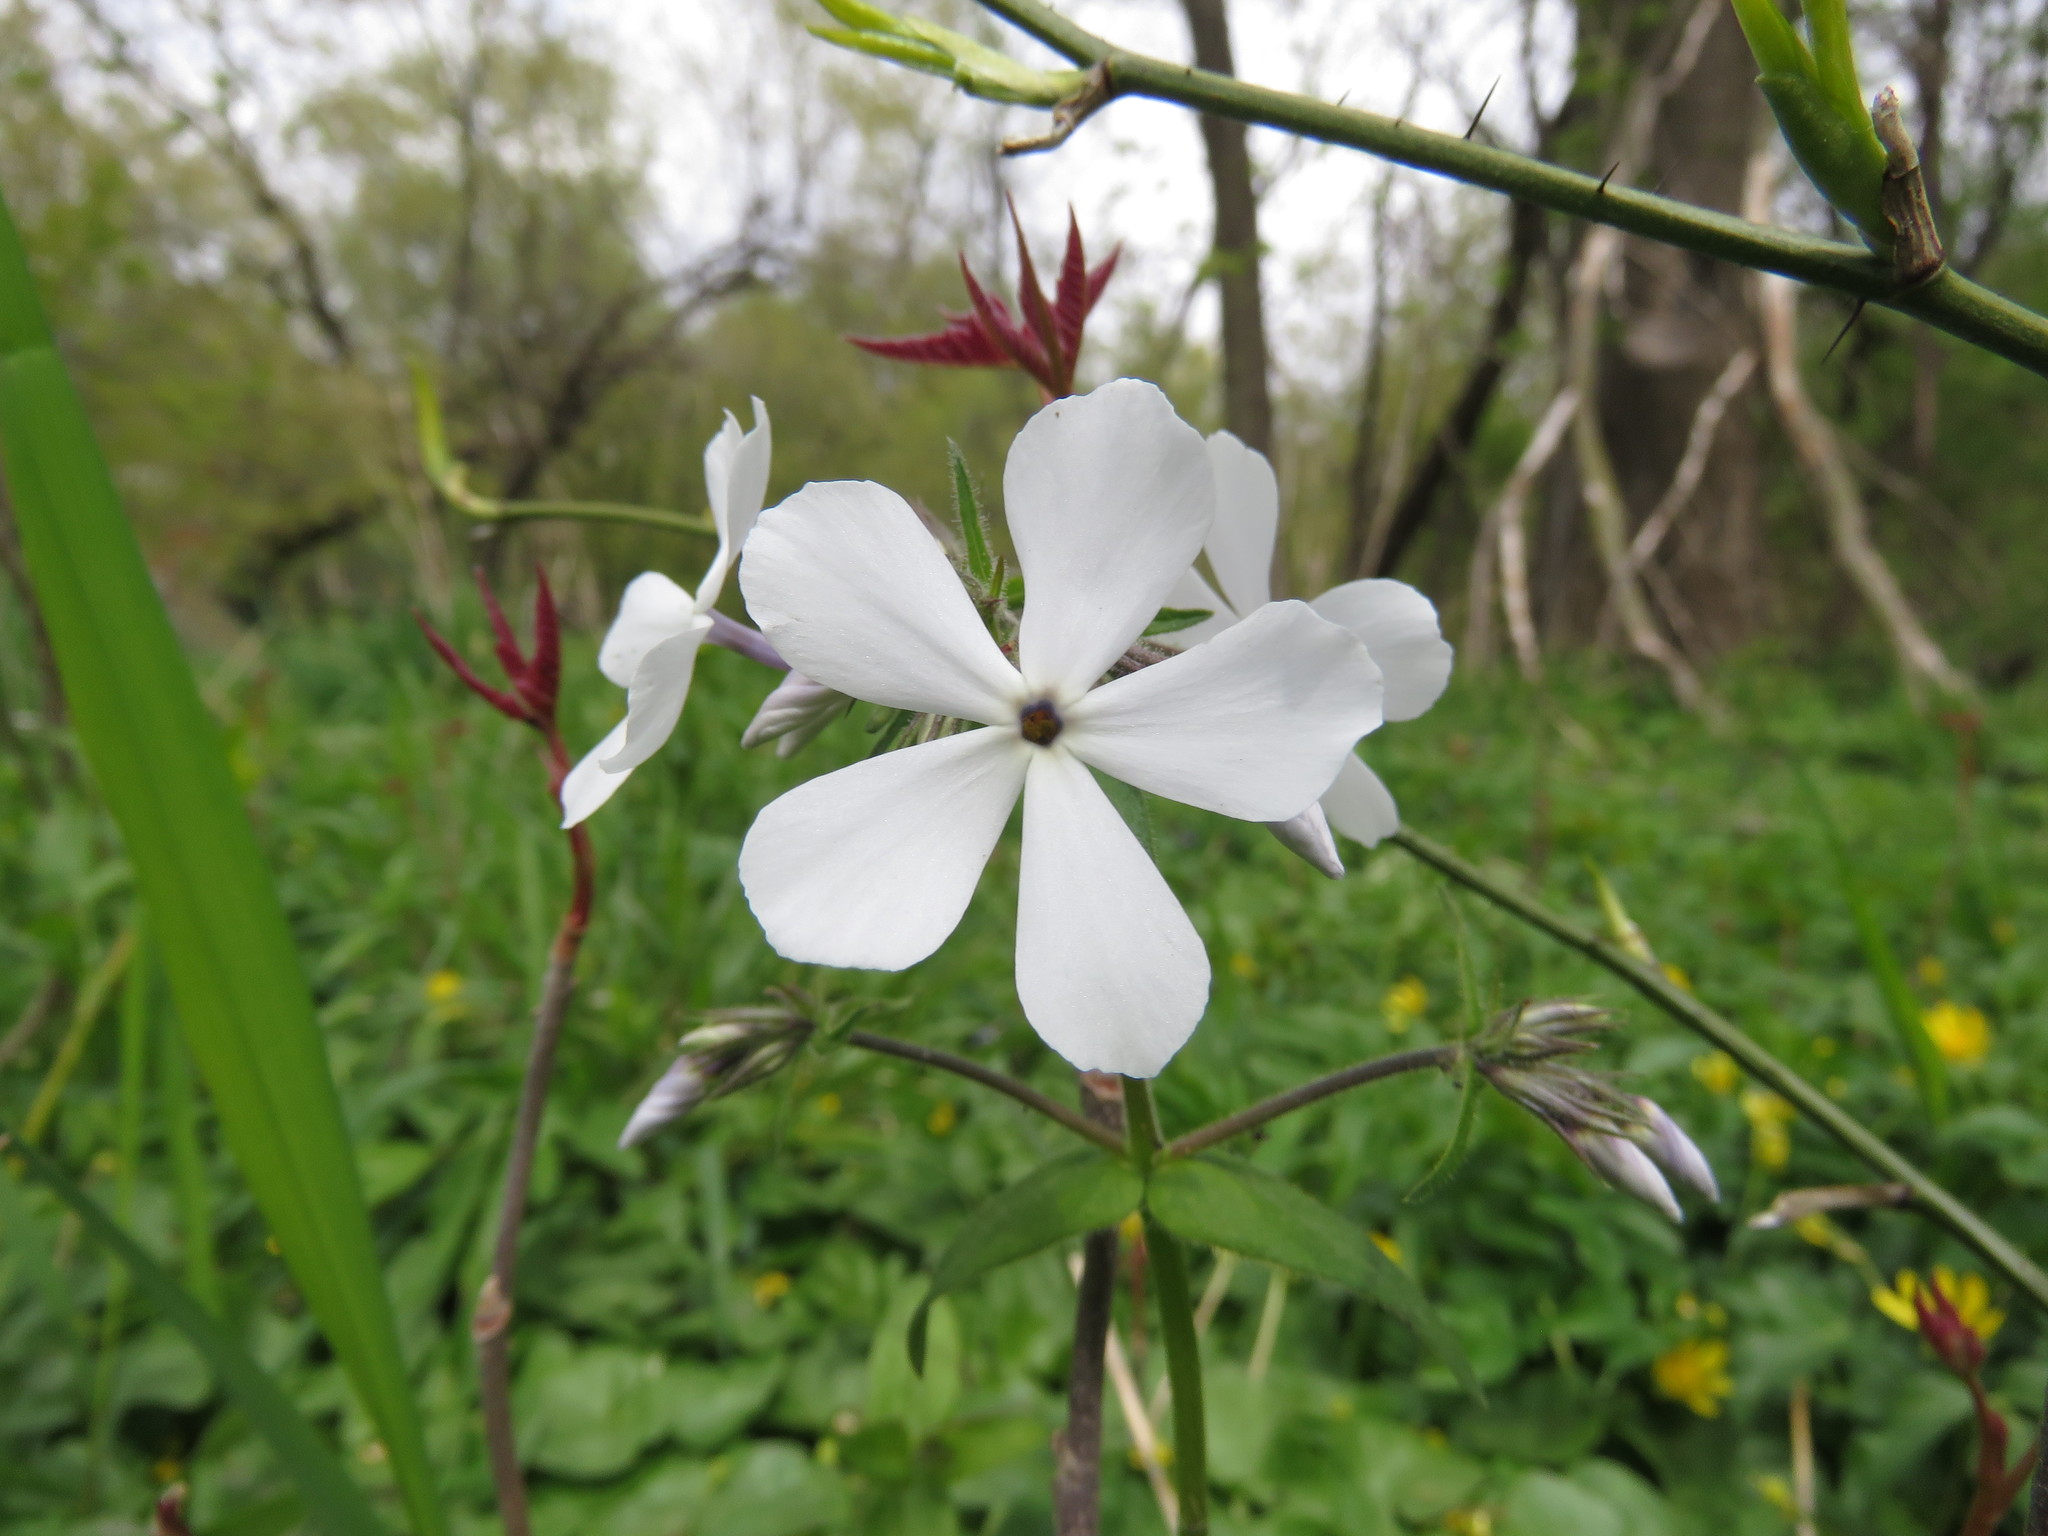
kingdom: Plantae
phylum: Tracheophyta
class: Magnoliopsida
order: Ericales
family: Polemoniaceae
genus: Phlox
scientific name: Phlox divaricata
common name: Blue phlox
